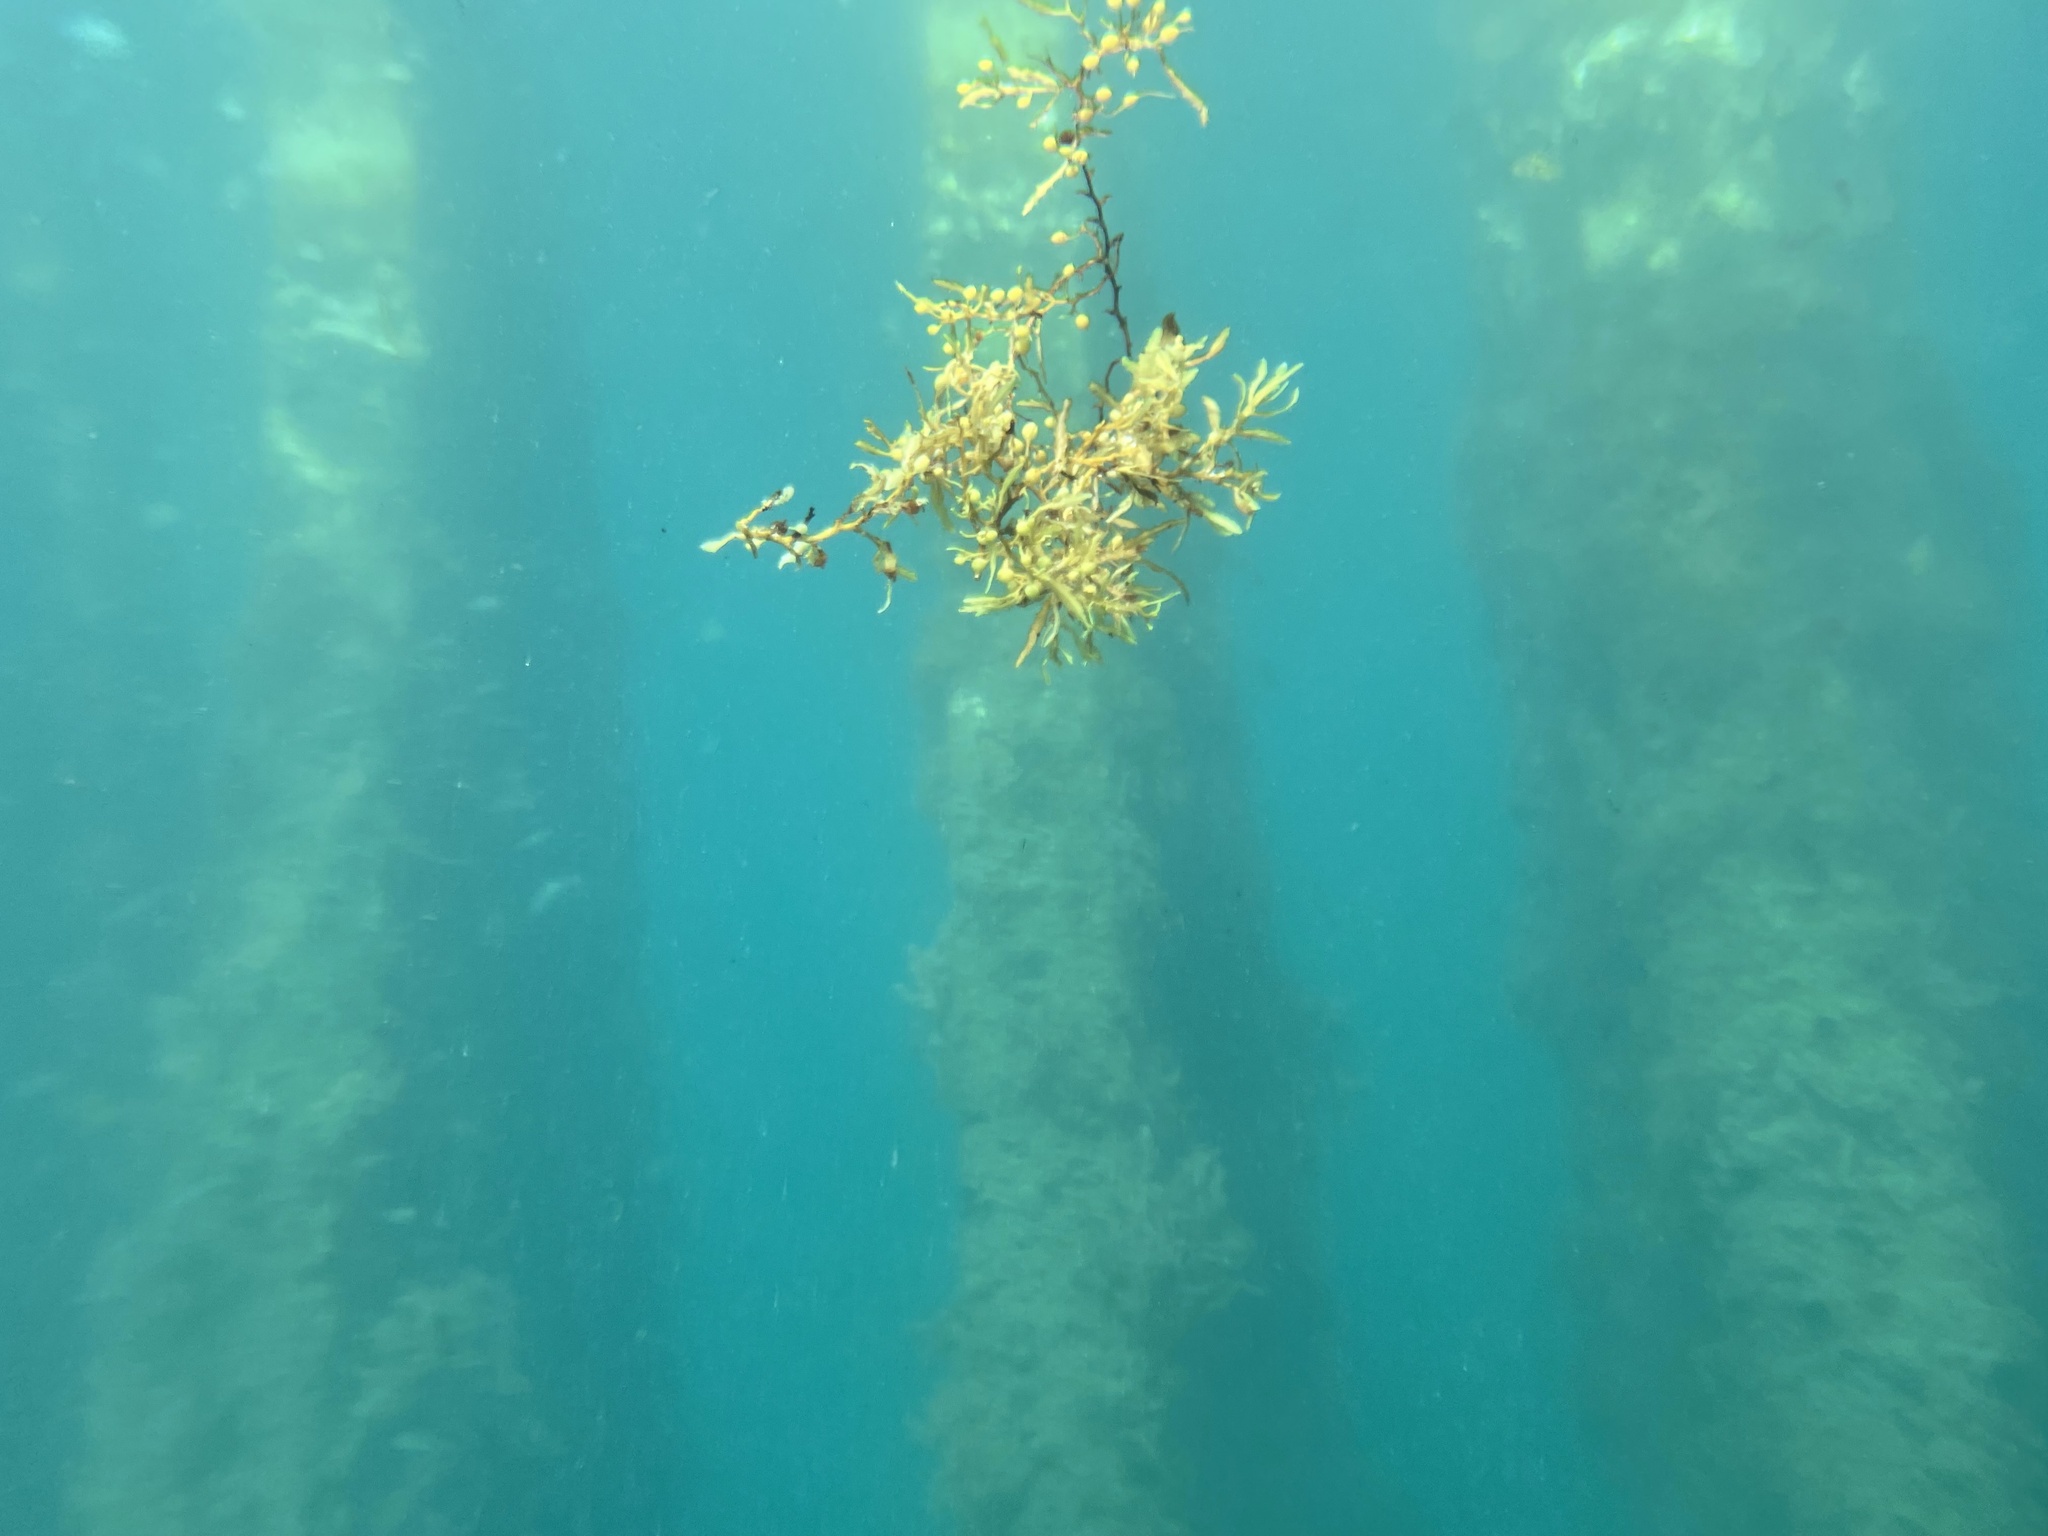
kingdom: Chromista
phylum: Ochrophyta
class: Phaeophyceae
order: Fucales
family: Sargassaceae
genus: Sargassum
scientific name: Sargassum fluitans
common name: Sargassum seaweed
